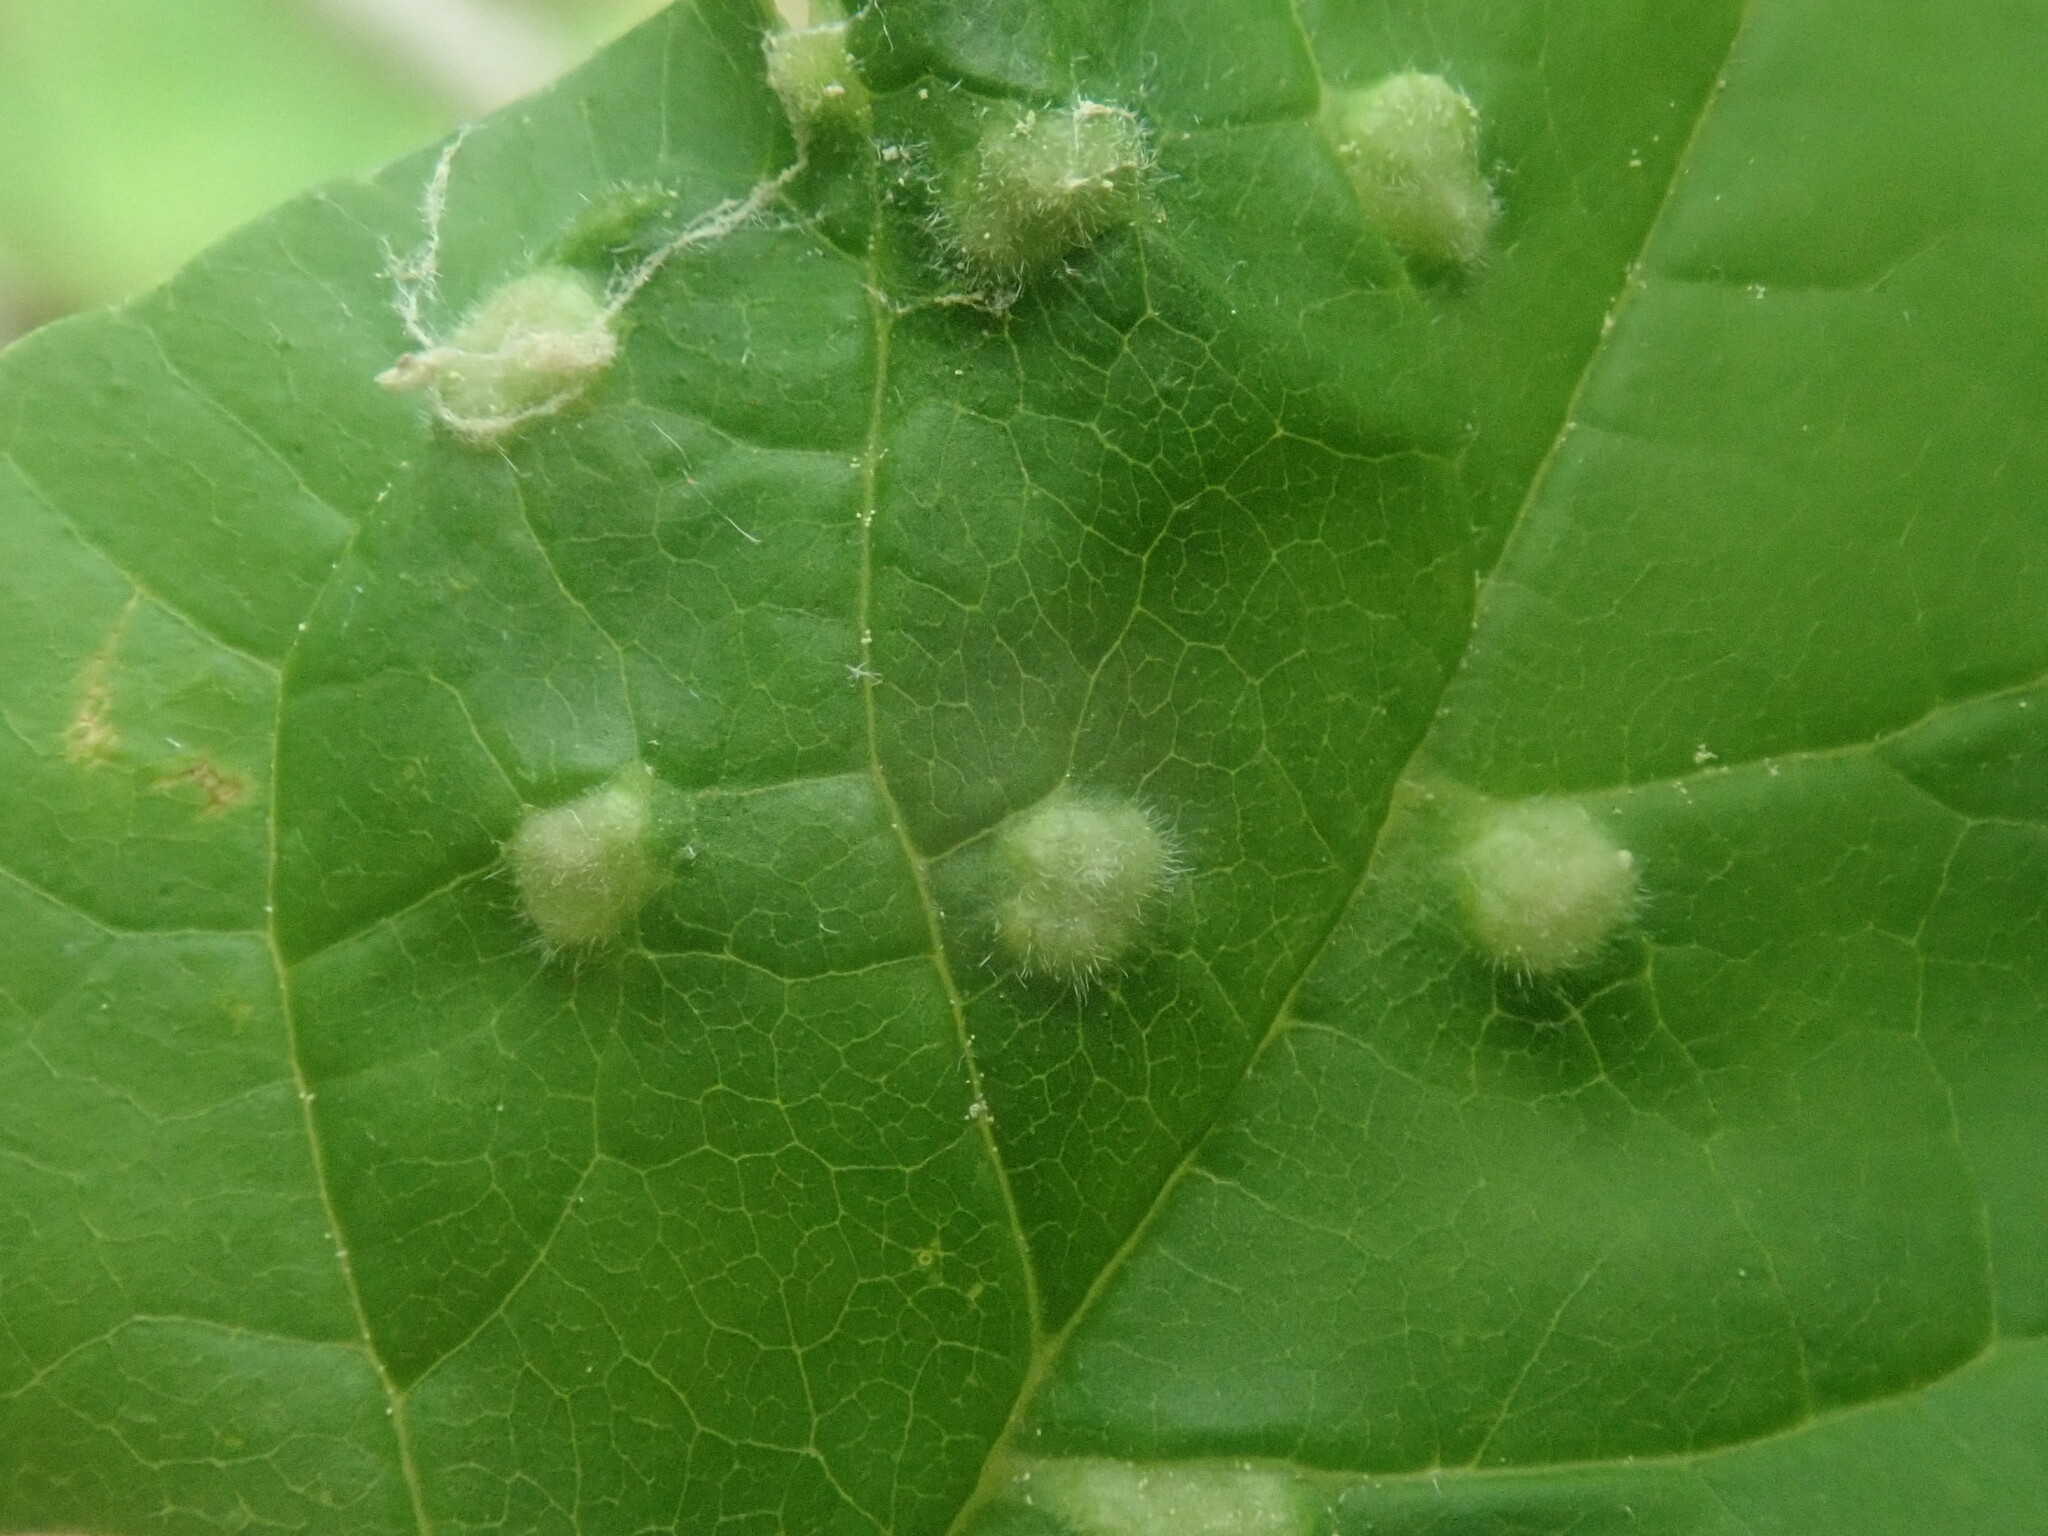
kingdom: Animalia
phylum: Arthropoda
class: Arachnida
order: Trombidiformes
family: Eriophyidae
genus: Aceria
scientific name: Aceria fraxinicola
